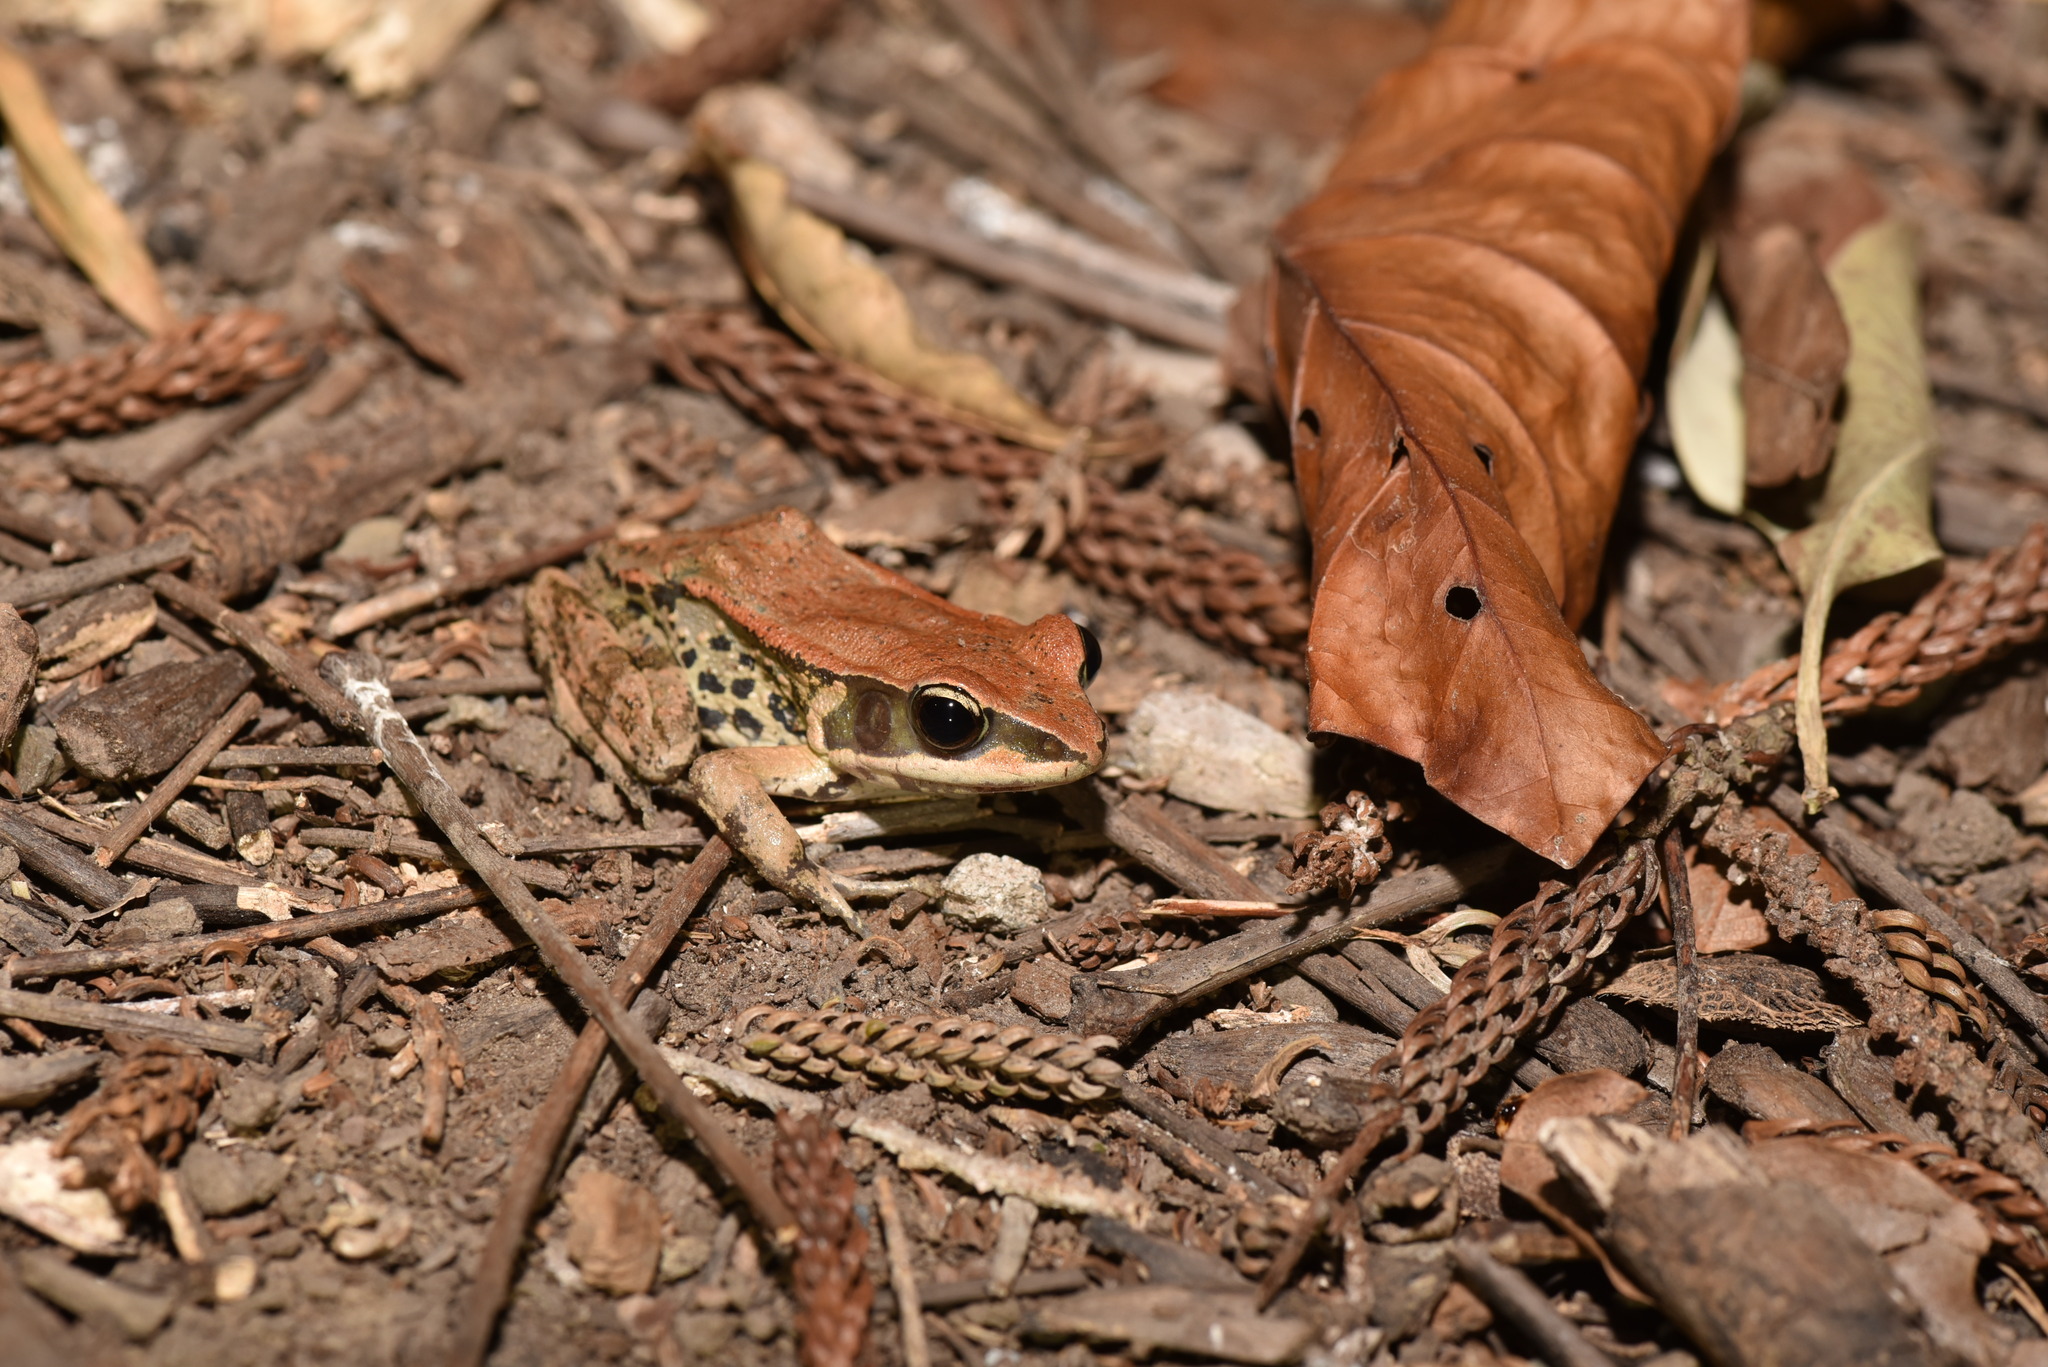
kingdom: Animalia
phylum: Chordata
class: Amphibia
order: Anura
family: Ranidae
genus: Hylarana
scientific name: Hylarana latouchii
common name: Broad-folded frog
